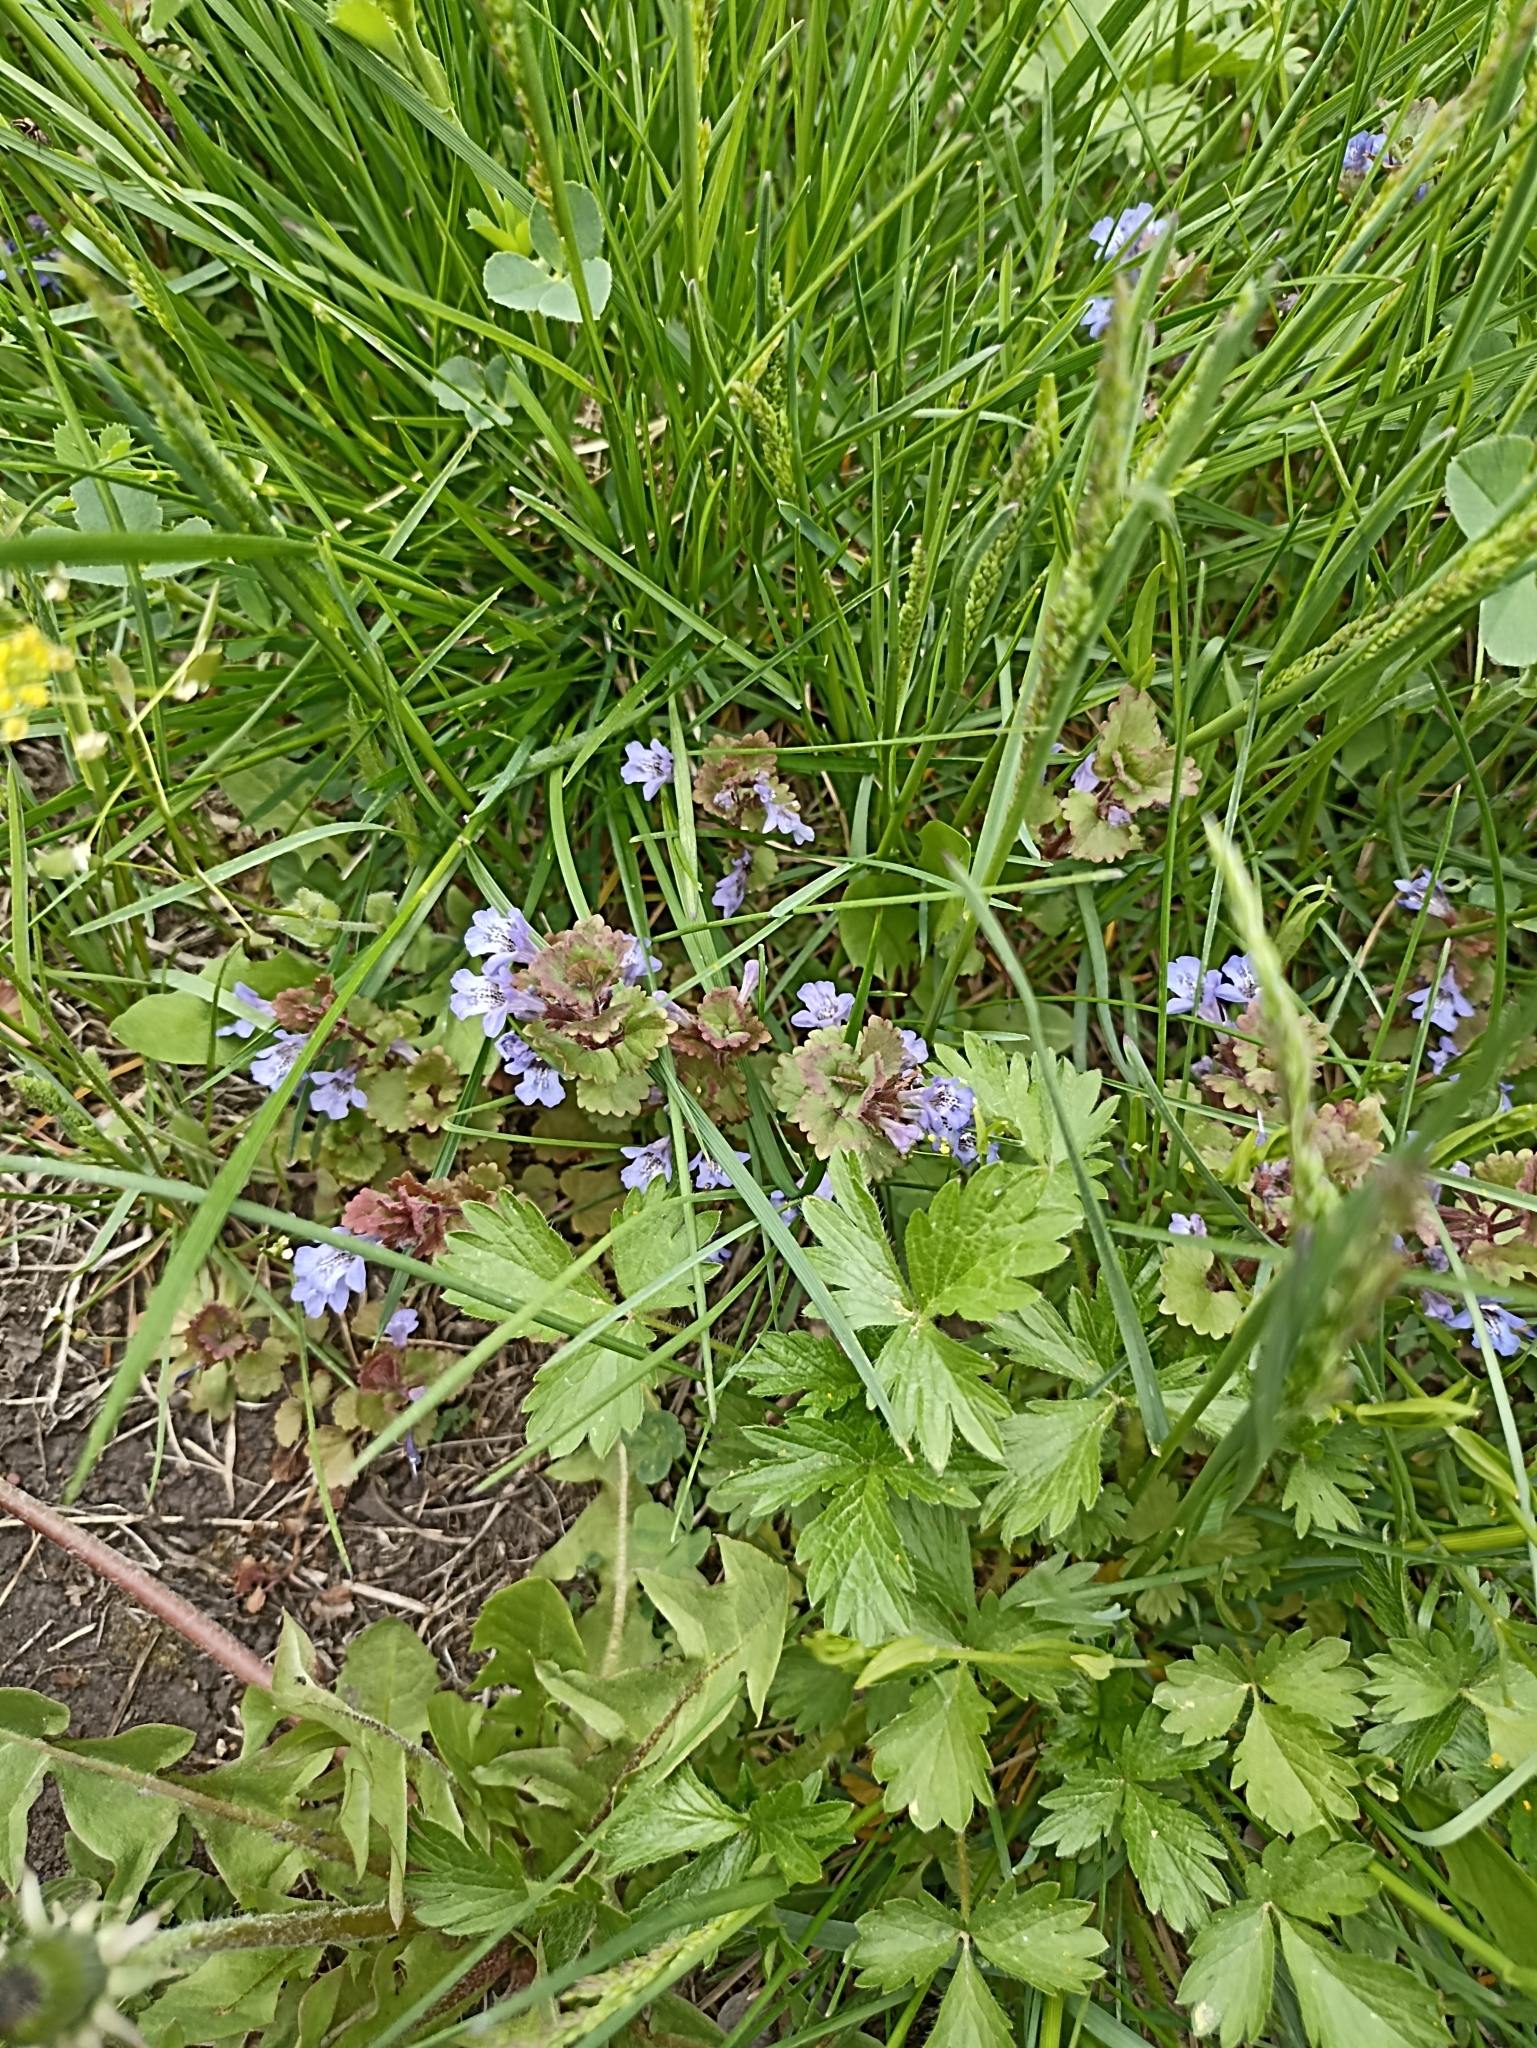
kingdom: Plantae
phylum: Tracheophyta
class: Magnoliopsida
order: Lamiales
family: Lamiaceae
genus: Glechoma
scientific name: Glechoma hederacea
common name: Ground ivy
